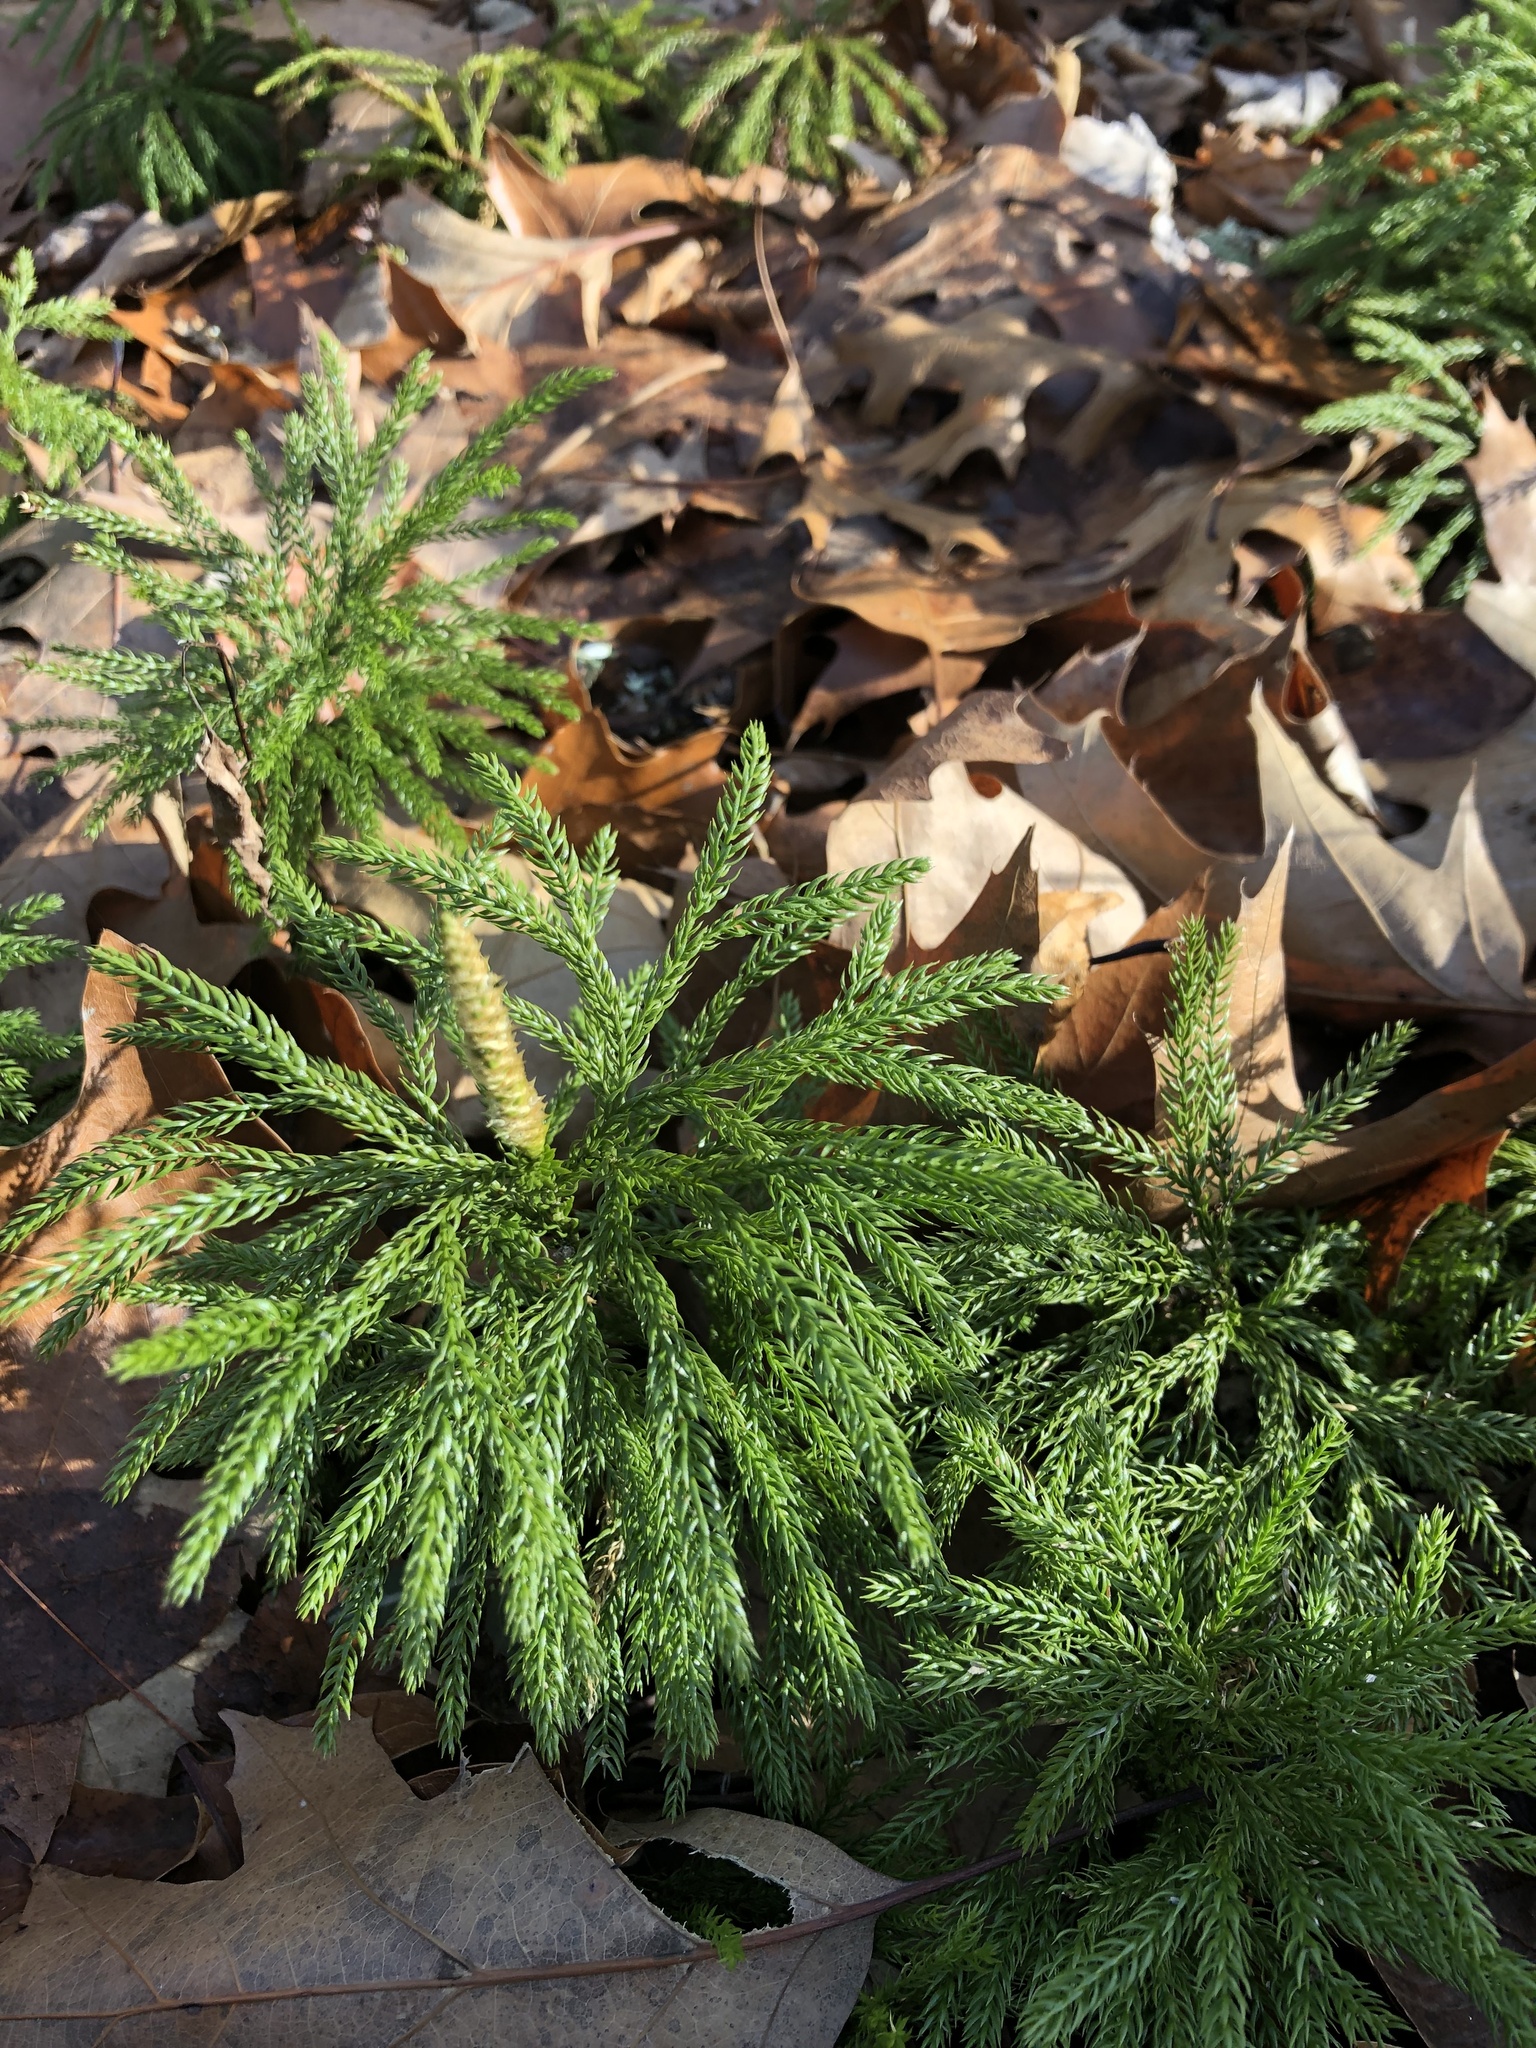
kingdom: Plantae
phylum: Tracheophyta
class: Lycopodiopsida
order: Lycopodiales
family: Lycopodiaceae
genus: Dendrolycopodium
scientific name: Dendrolycopodium obscurum
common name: Common ground-pine
